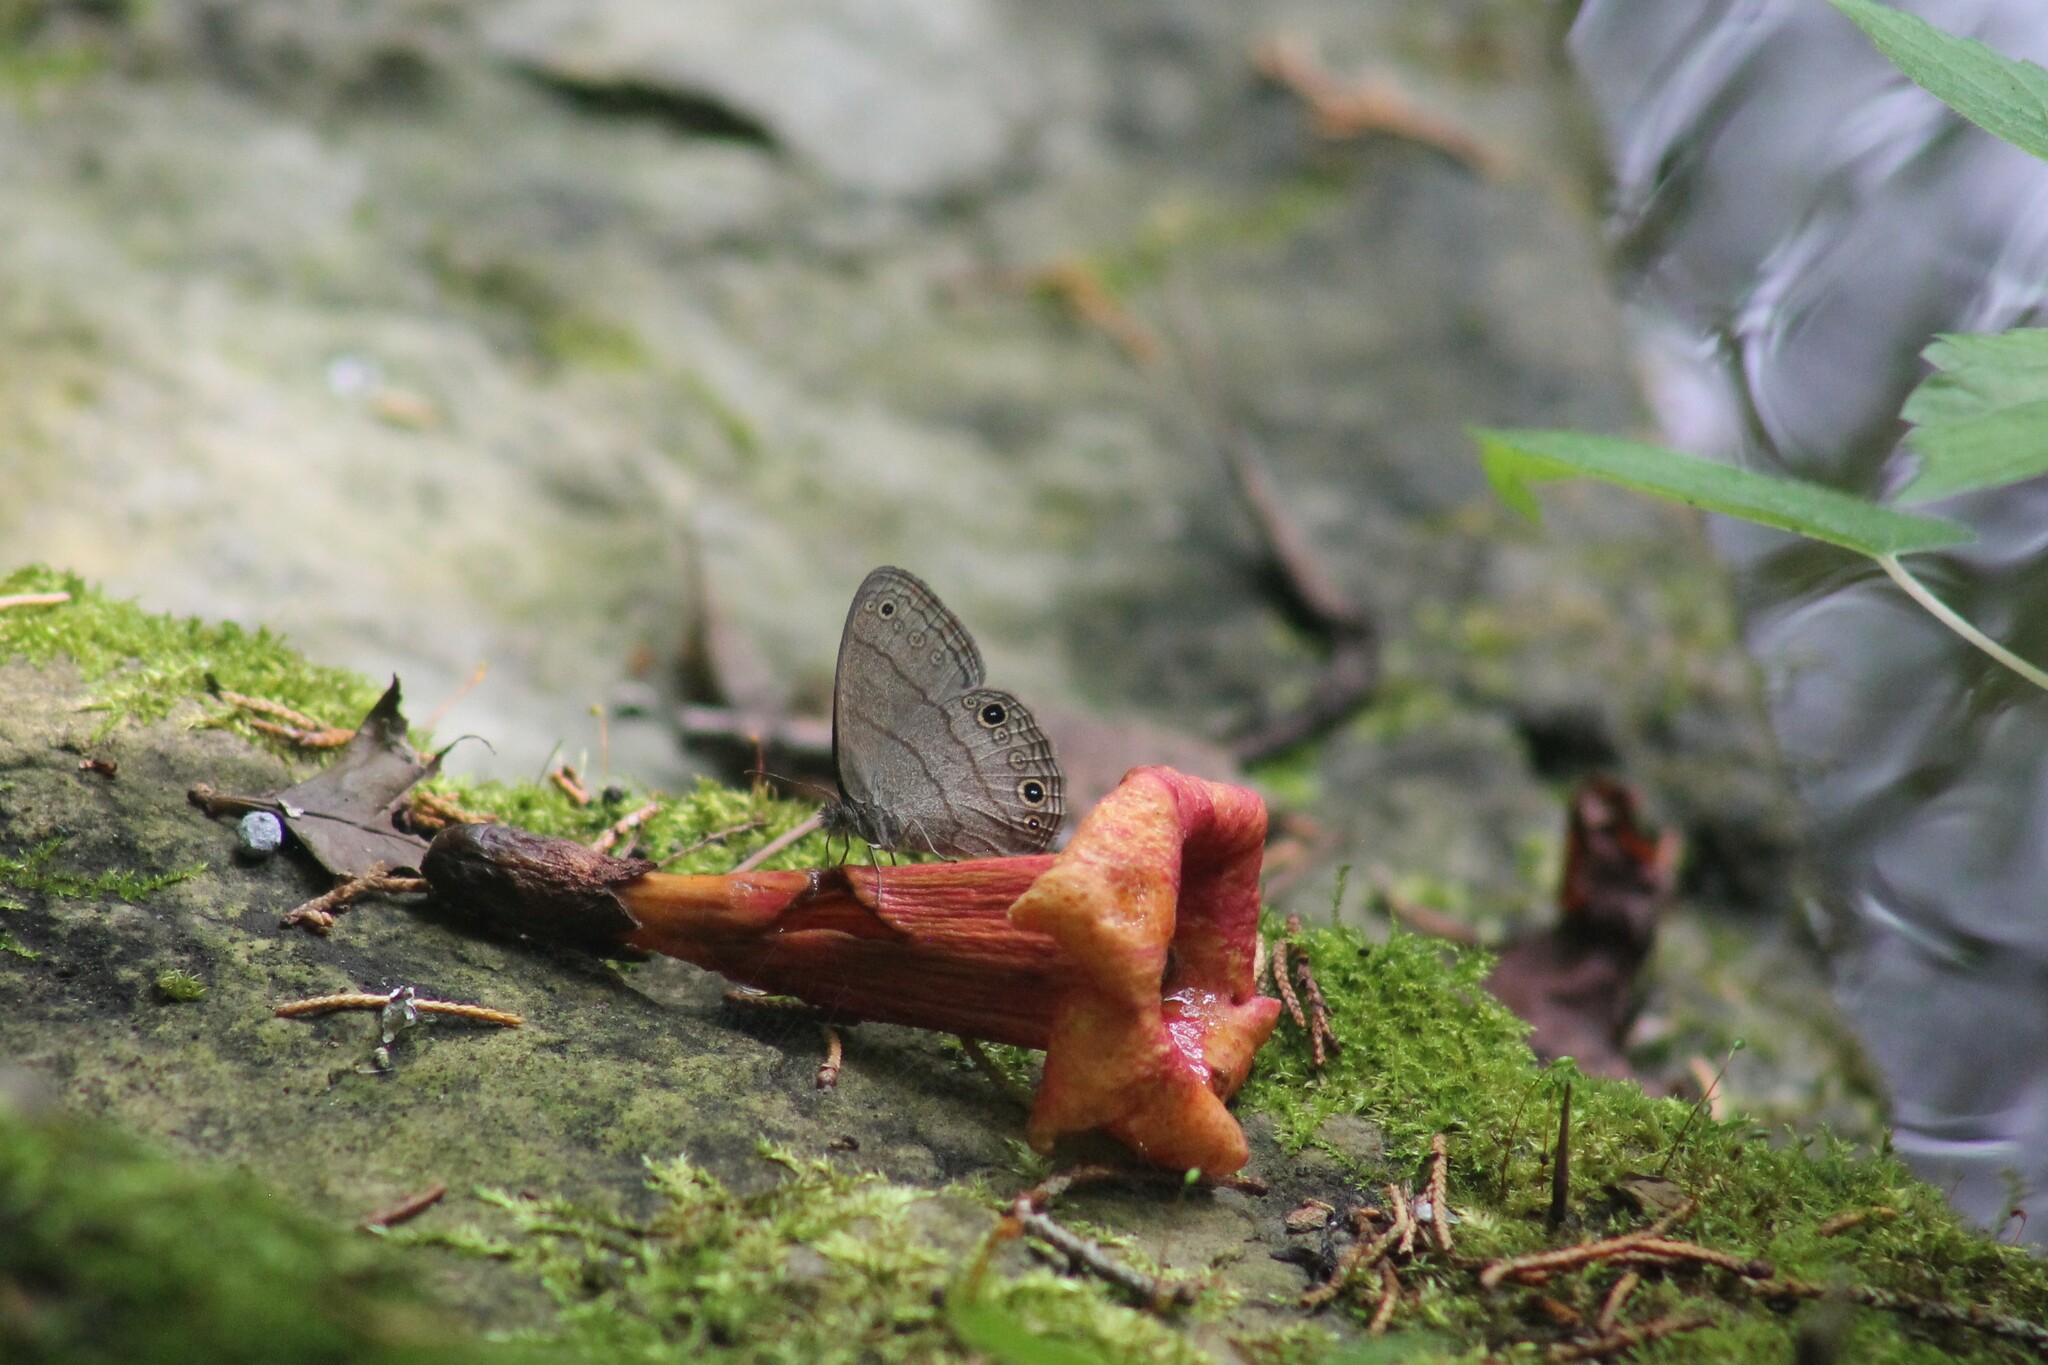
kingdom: Animalia
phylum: Arthropoda
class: Insecta
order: Lepidoptera
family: Nymphalidae
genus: Hermeuptychia
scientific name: Hermeuptychia hermes
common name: Hermes satyr
